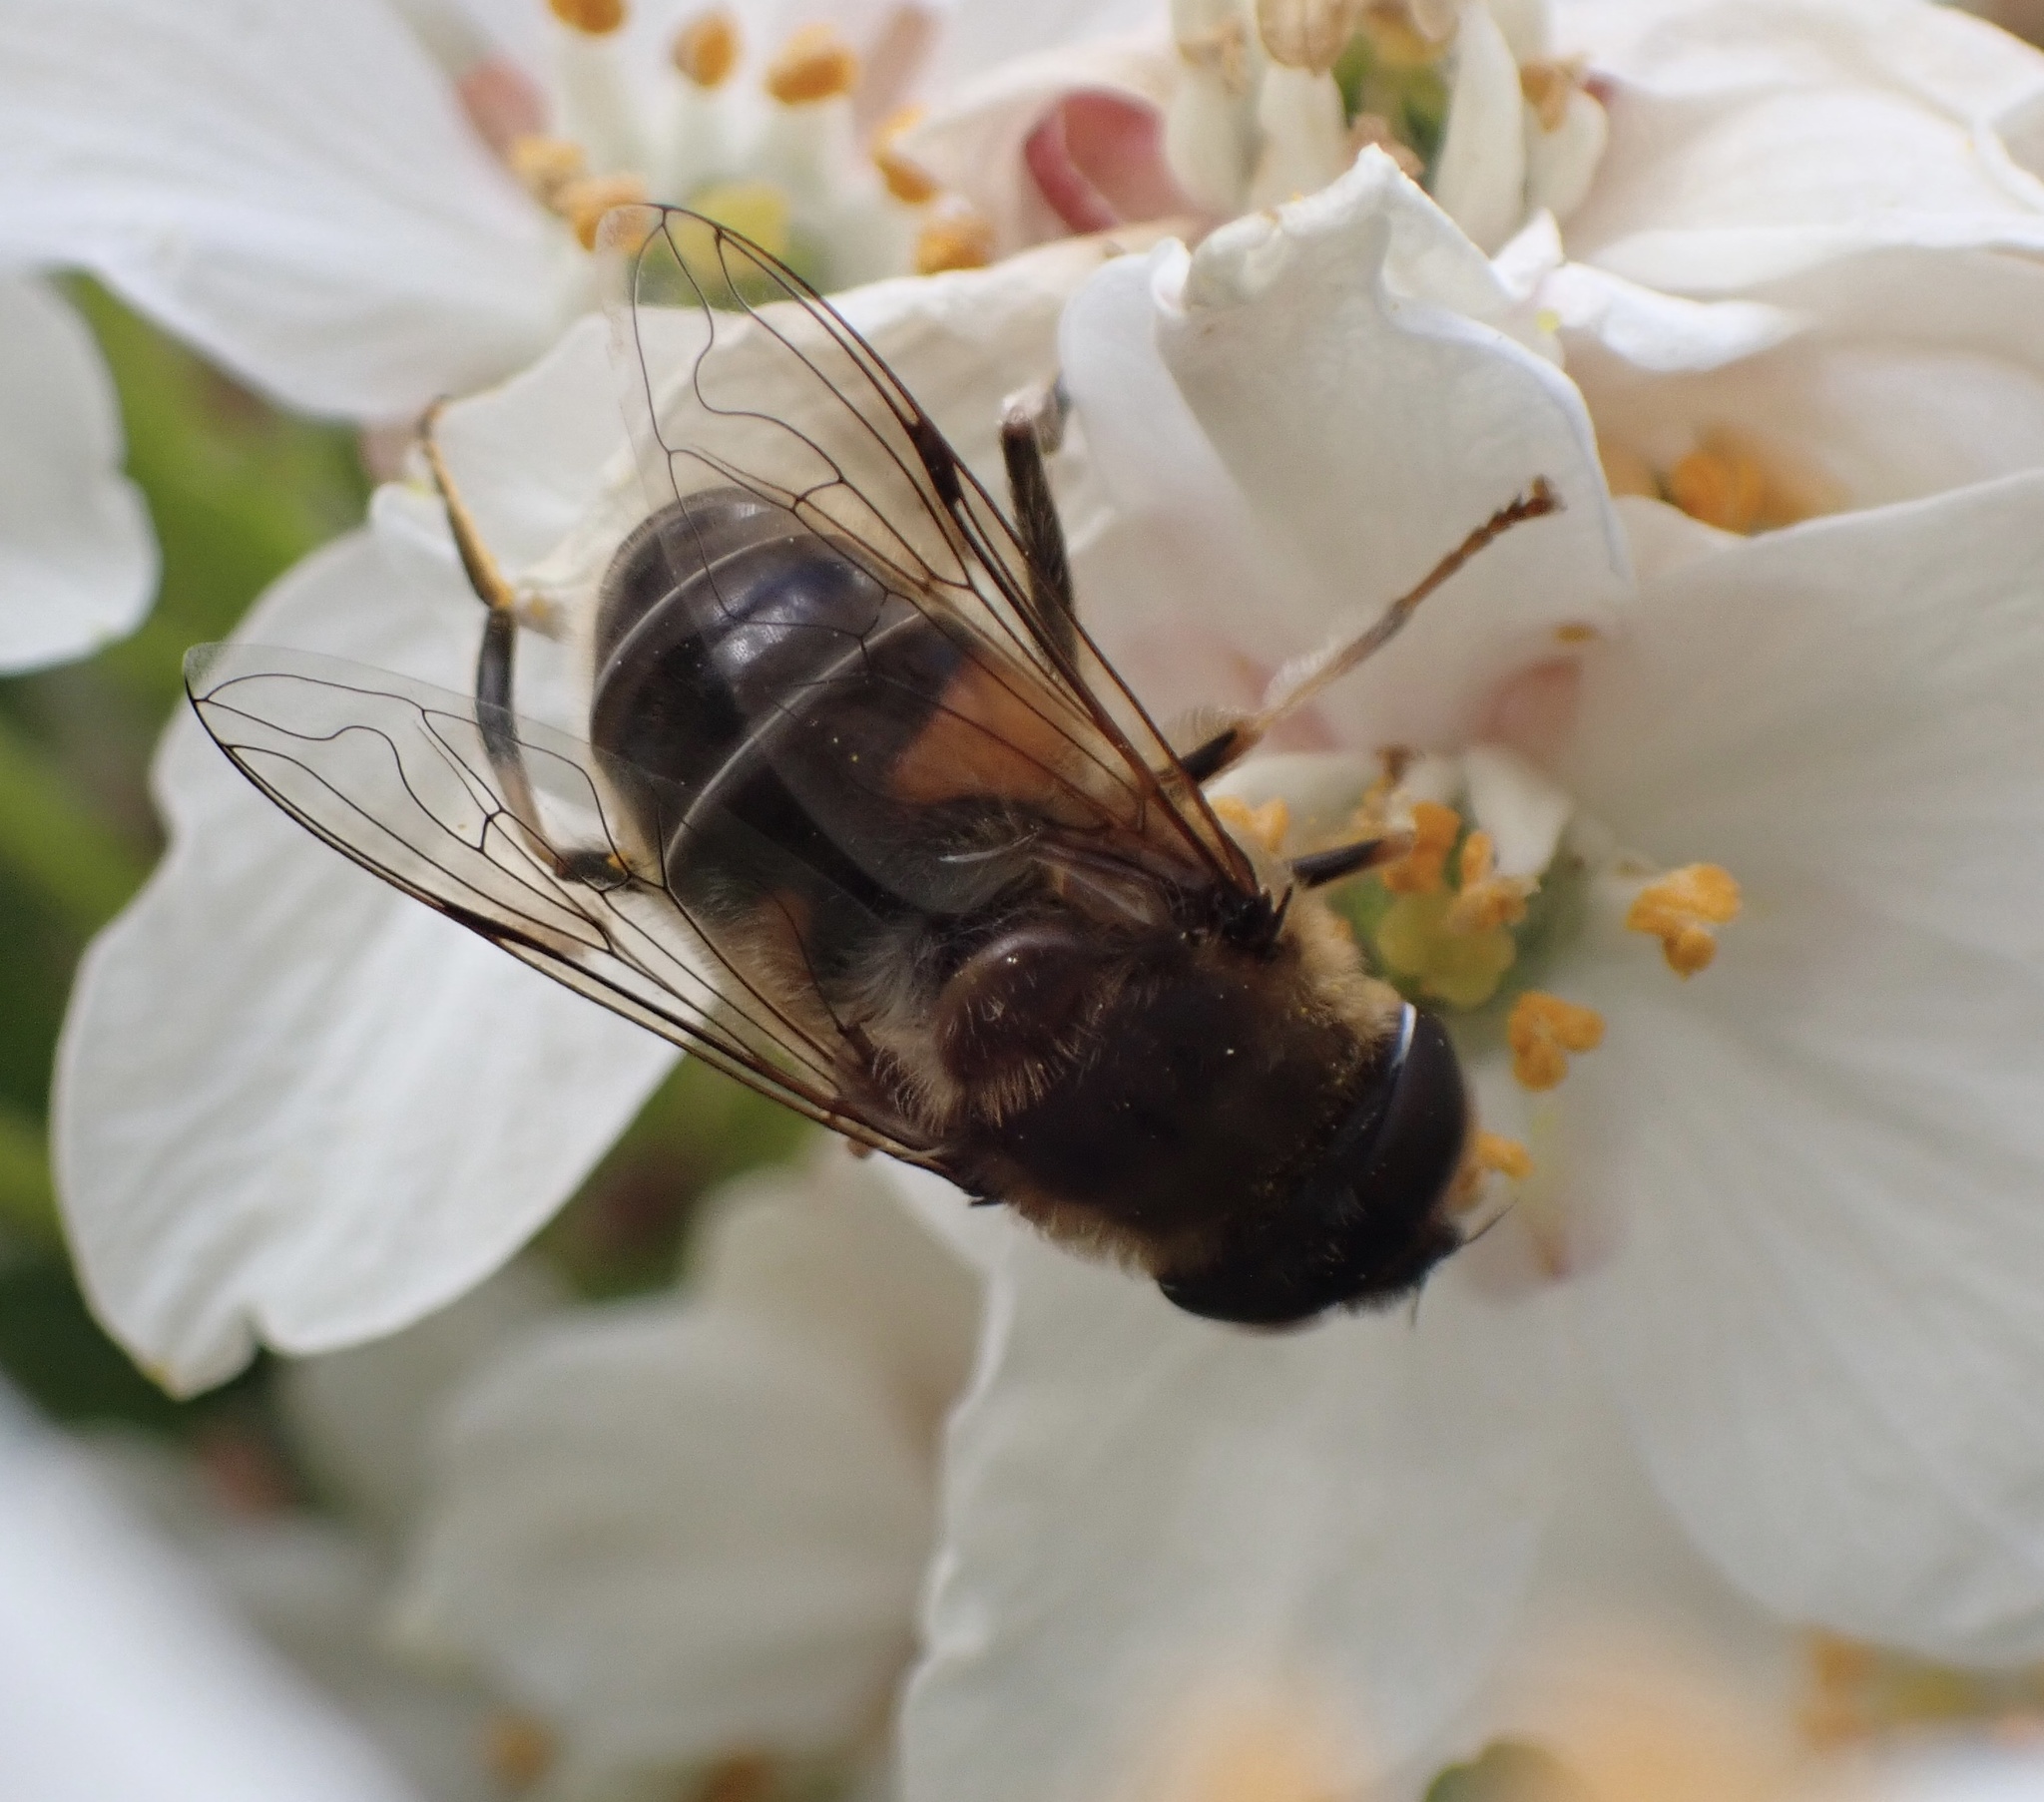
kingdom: Animalia
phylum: Arthropoda
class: Insecta
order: Diptera
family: Syrphidae
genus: Eristalis
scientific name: Eristalis pertinax
